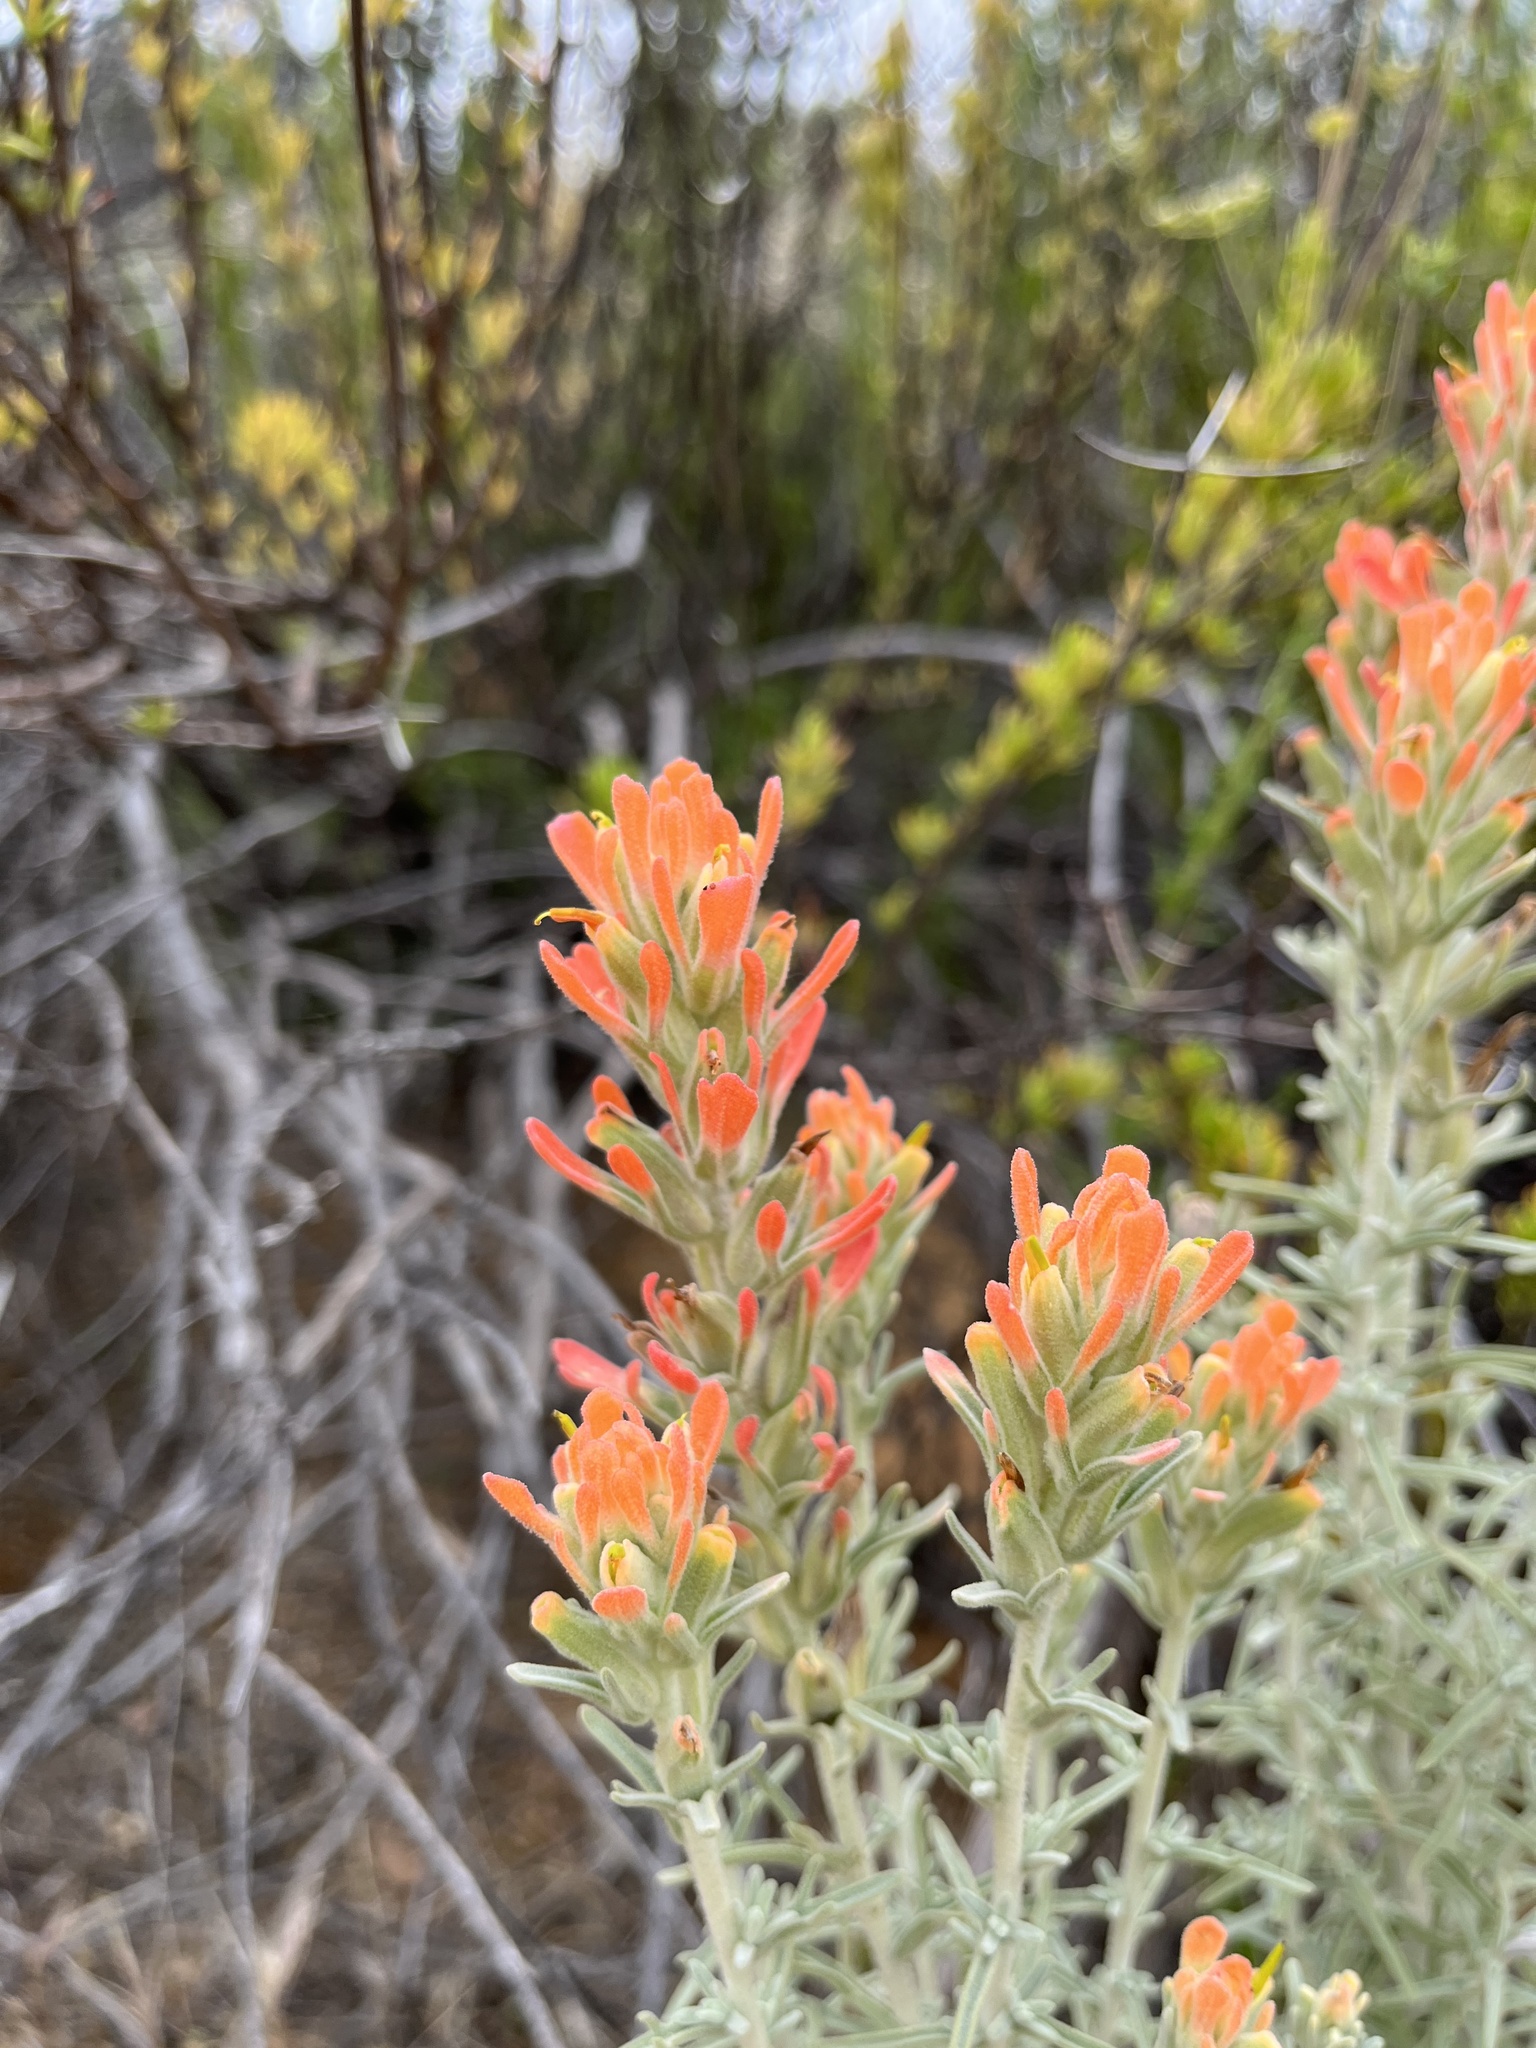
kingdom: Plantae
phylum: Tracheophyta
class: Magnoliopsida
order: Lamiales
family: Orobanchaceae
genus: Castilleja
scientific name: Castilleja foliolosa
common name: Woolly indian paintbrush
